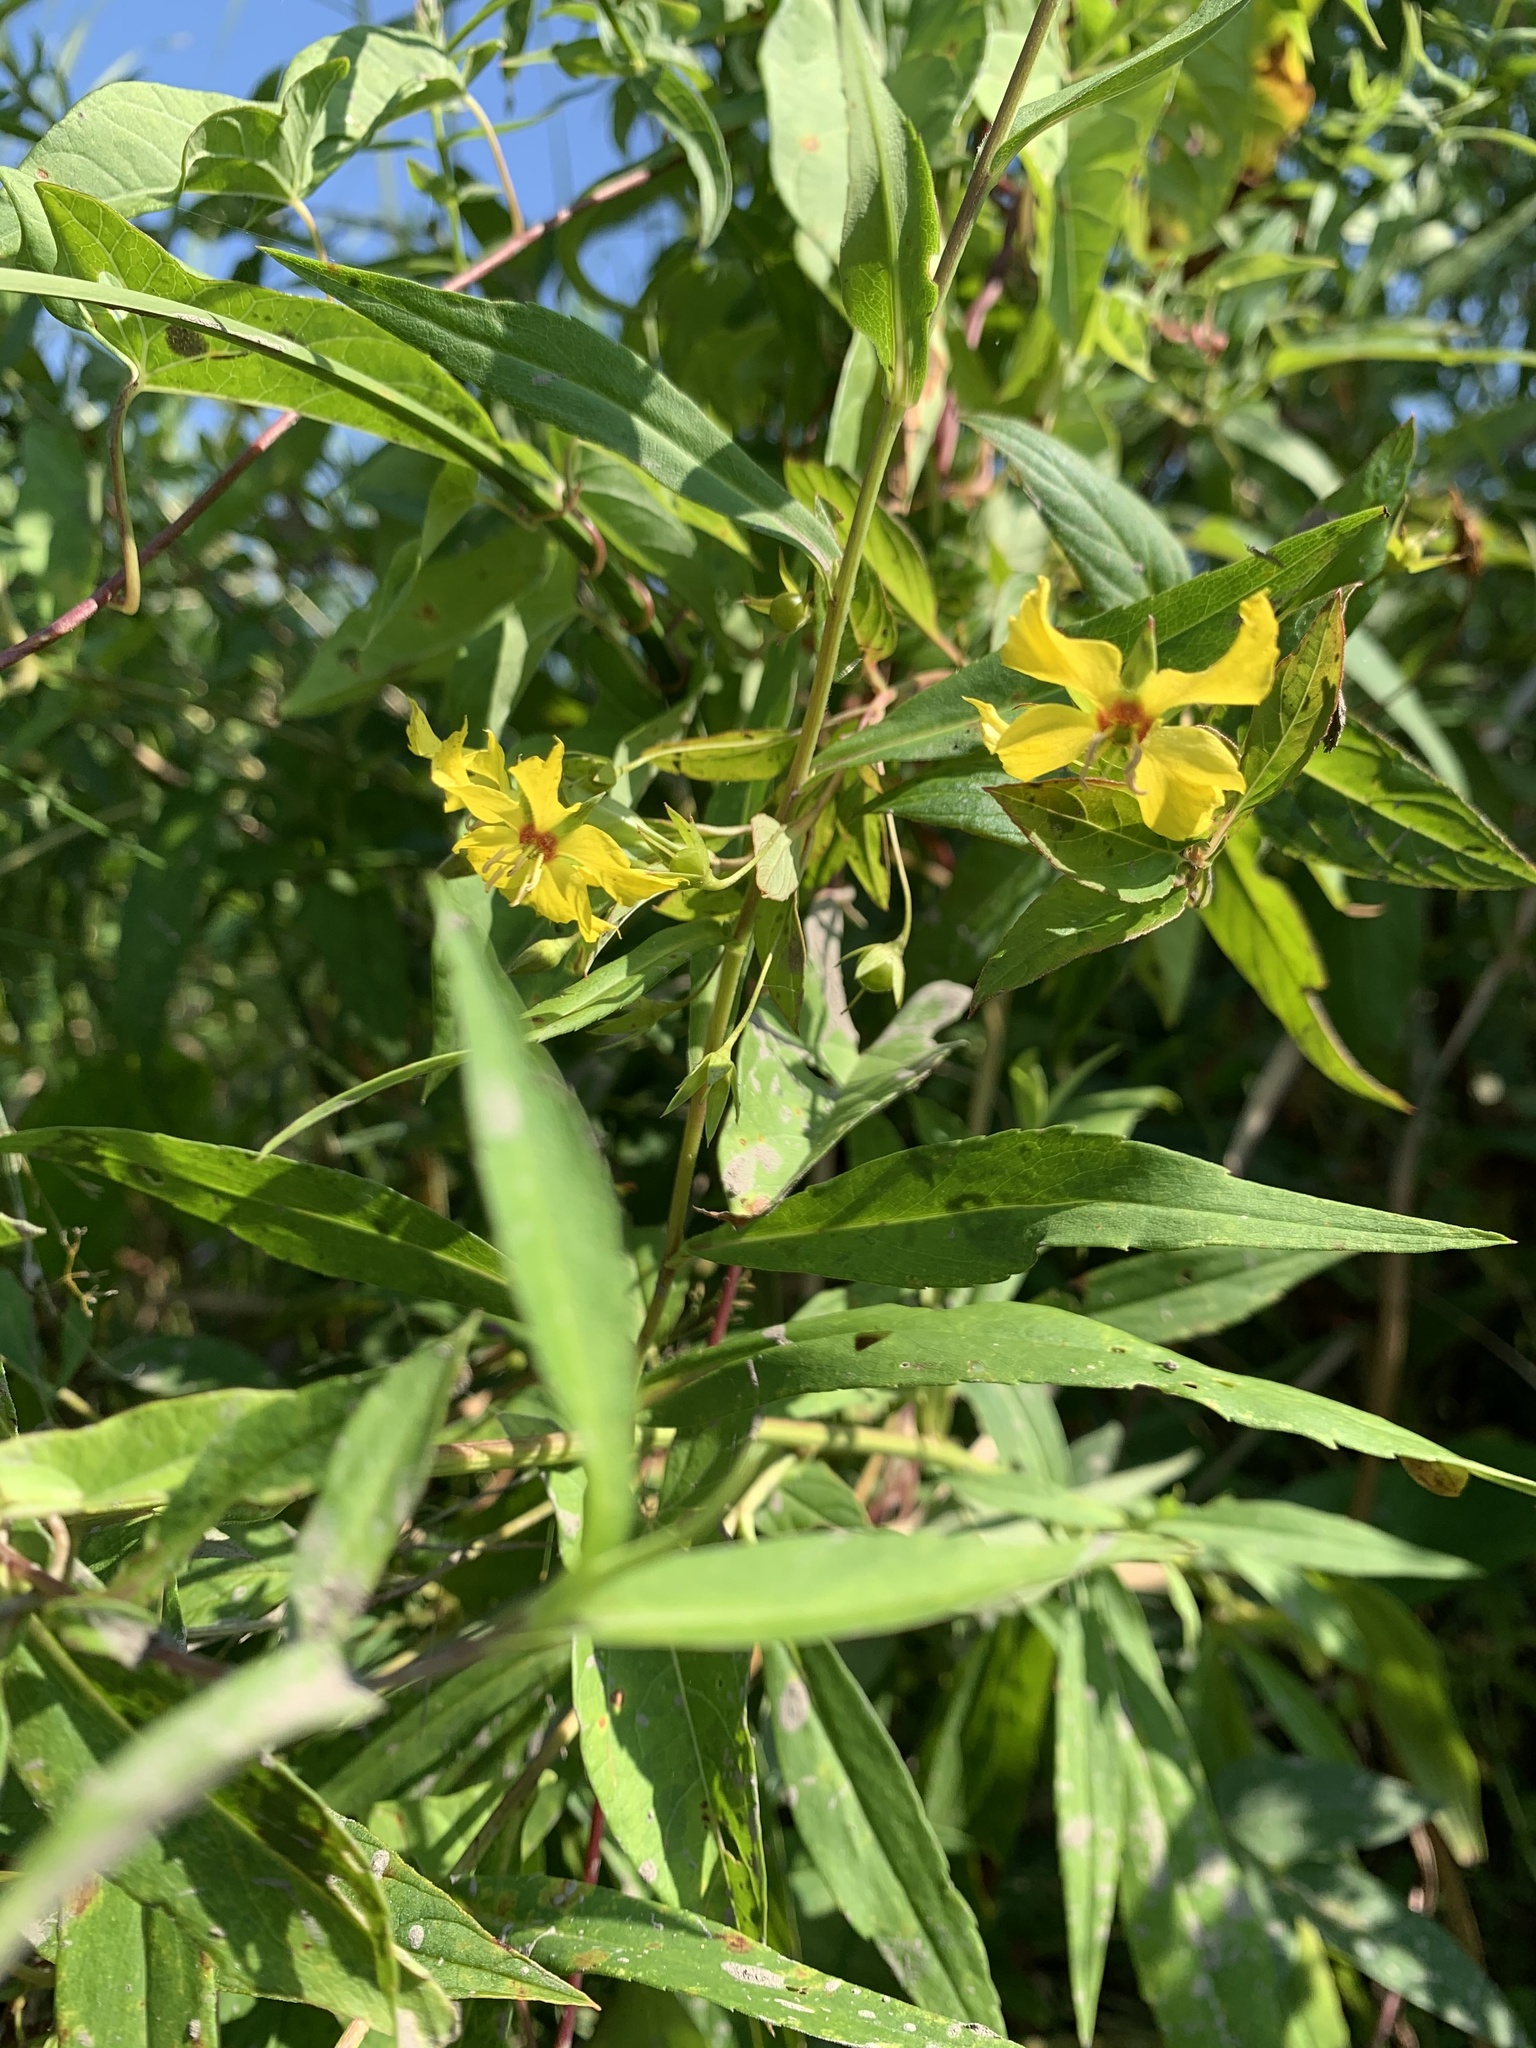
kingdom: Plantae
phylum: Tracheophyta
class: Magnoliopsida
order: Ericales
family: Primulaceae
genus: Lysimachia
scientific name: Lysimachia ciliata
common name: Fringed loosestrife
